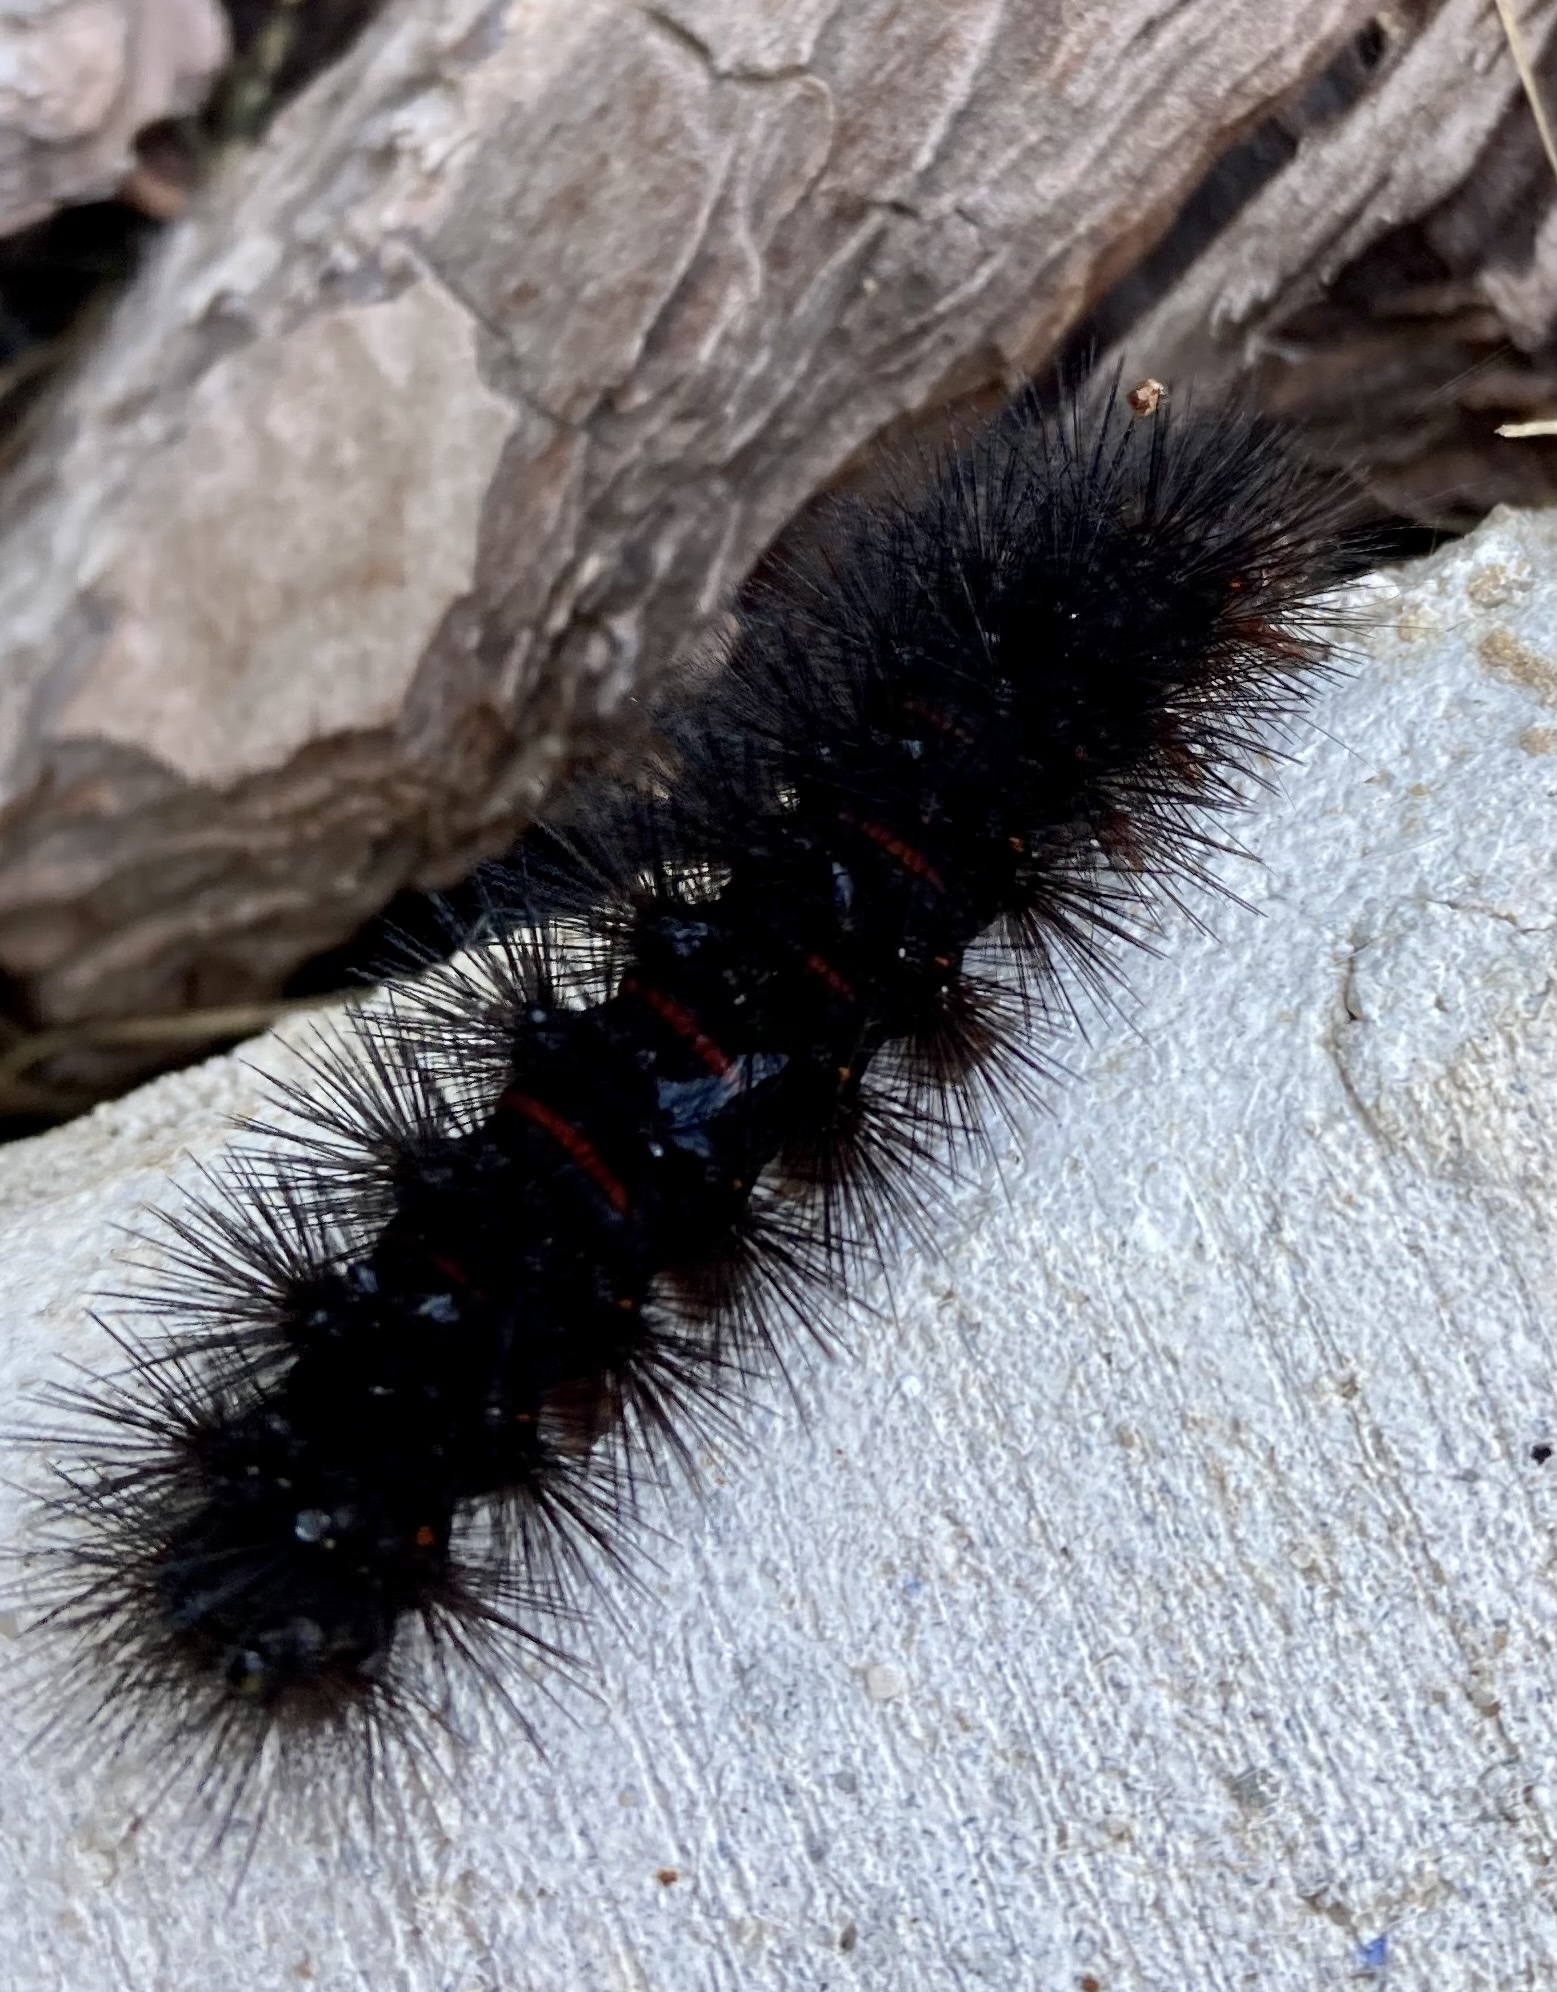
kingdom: Animalia
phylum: Arthropoda
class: Insecta
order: Lepidoptera
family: Erebidae
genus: Hypercompe
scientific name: Hypercompe scribonia
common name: Giant leopard moth
